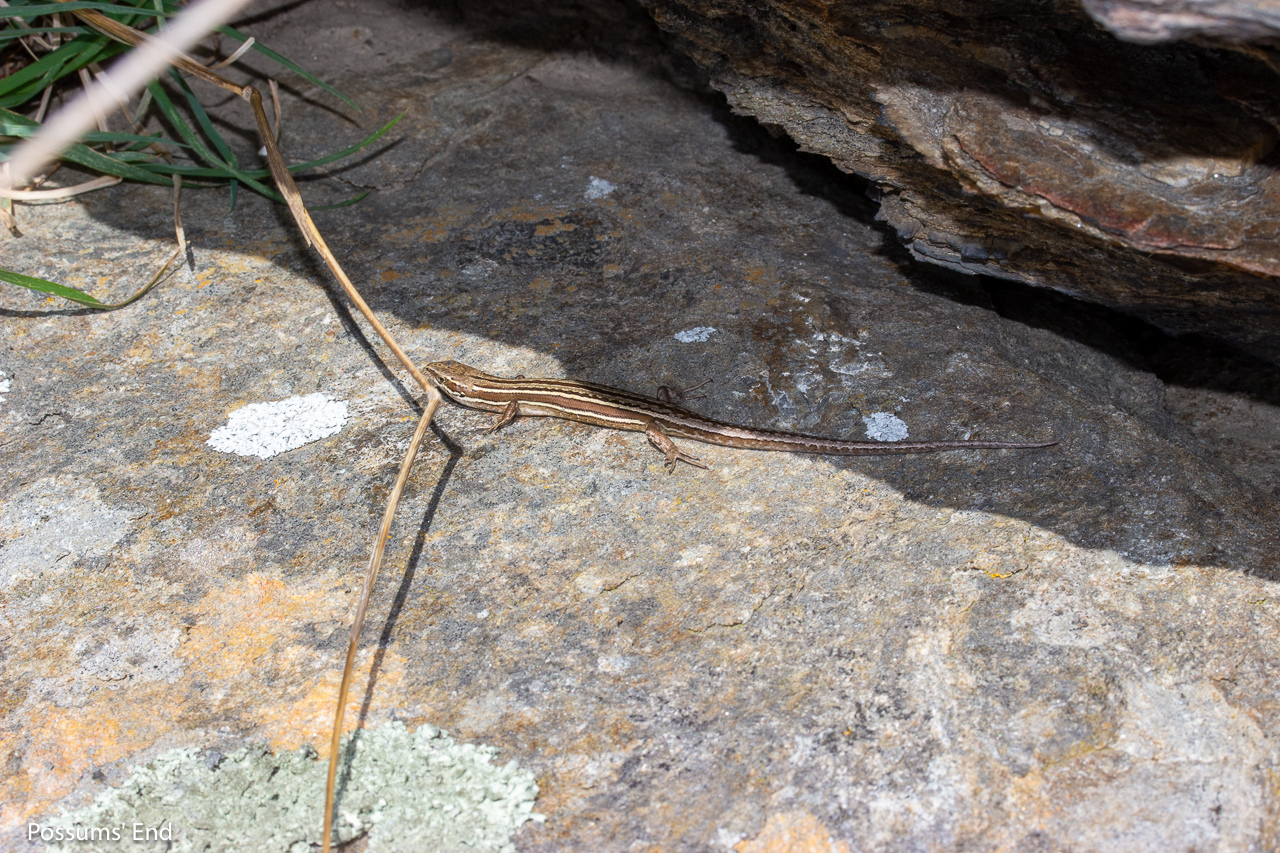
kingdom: Animalia
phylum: Chordata
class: Squamata
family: Scincidae
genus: Oligosoma
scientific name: Oligosoma maccanni
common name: Mccann’s skink
